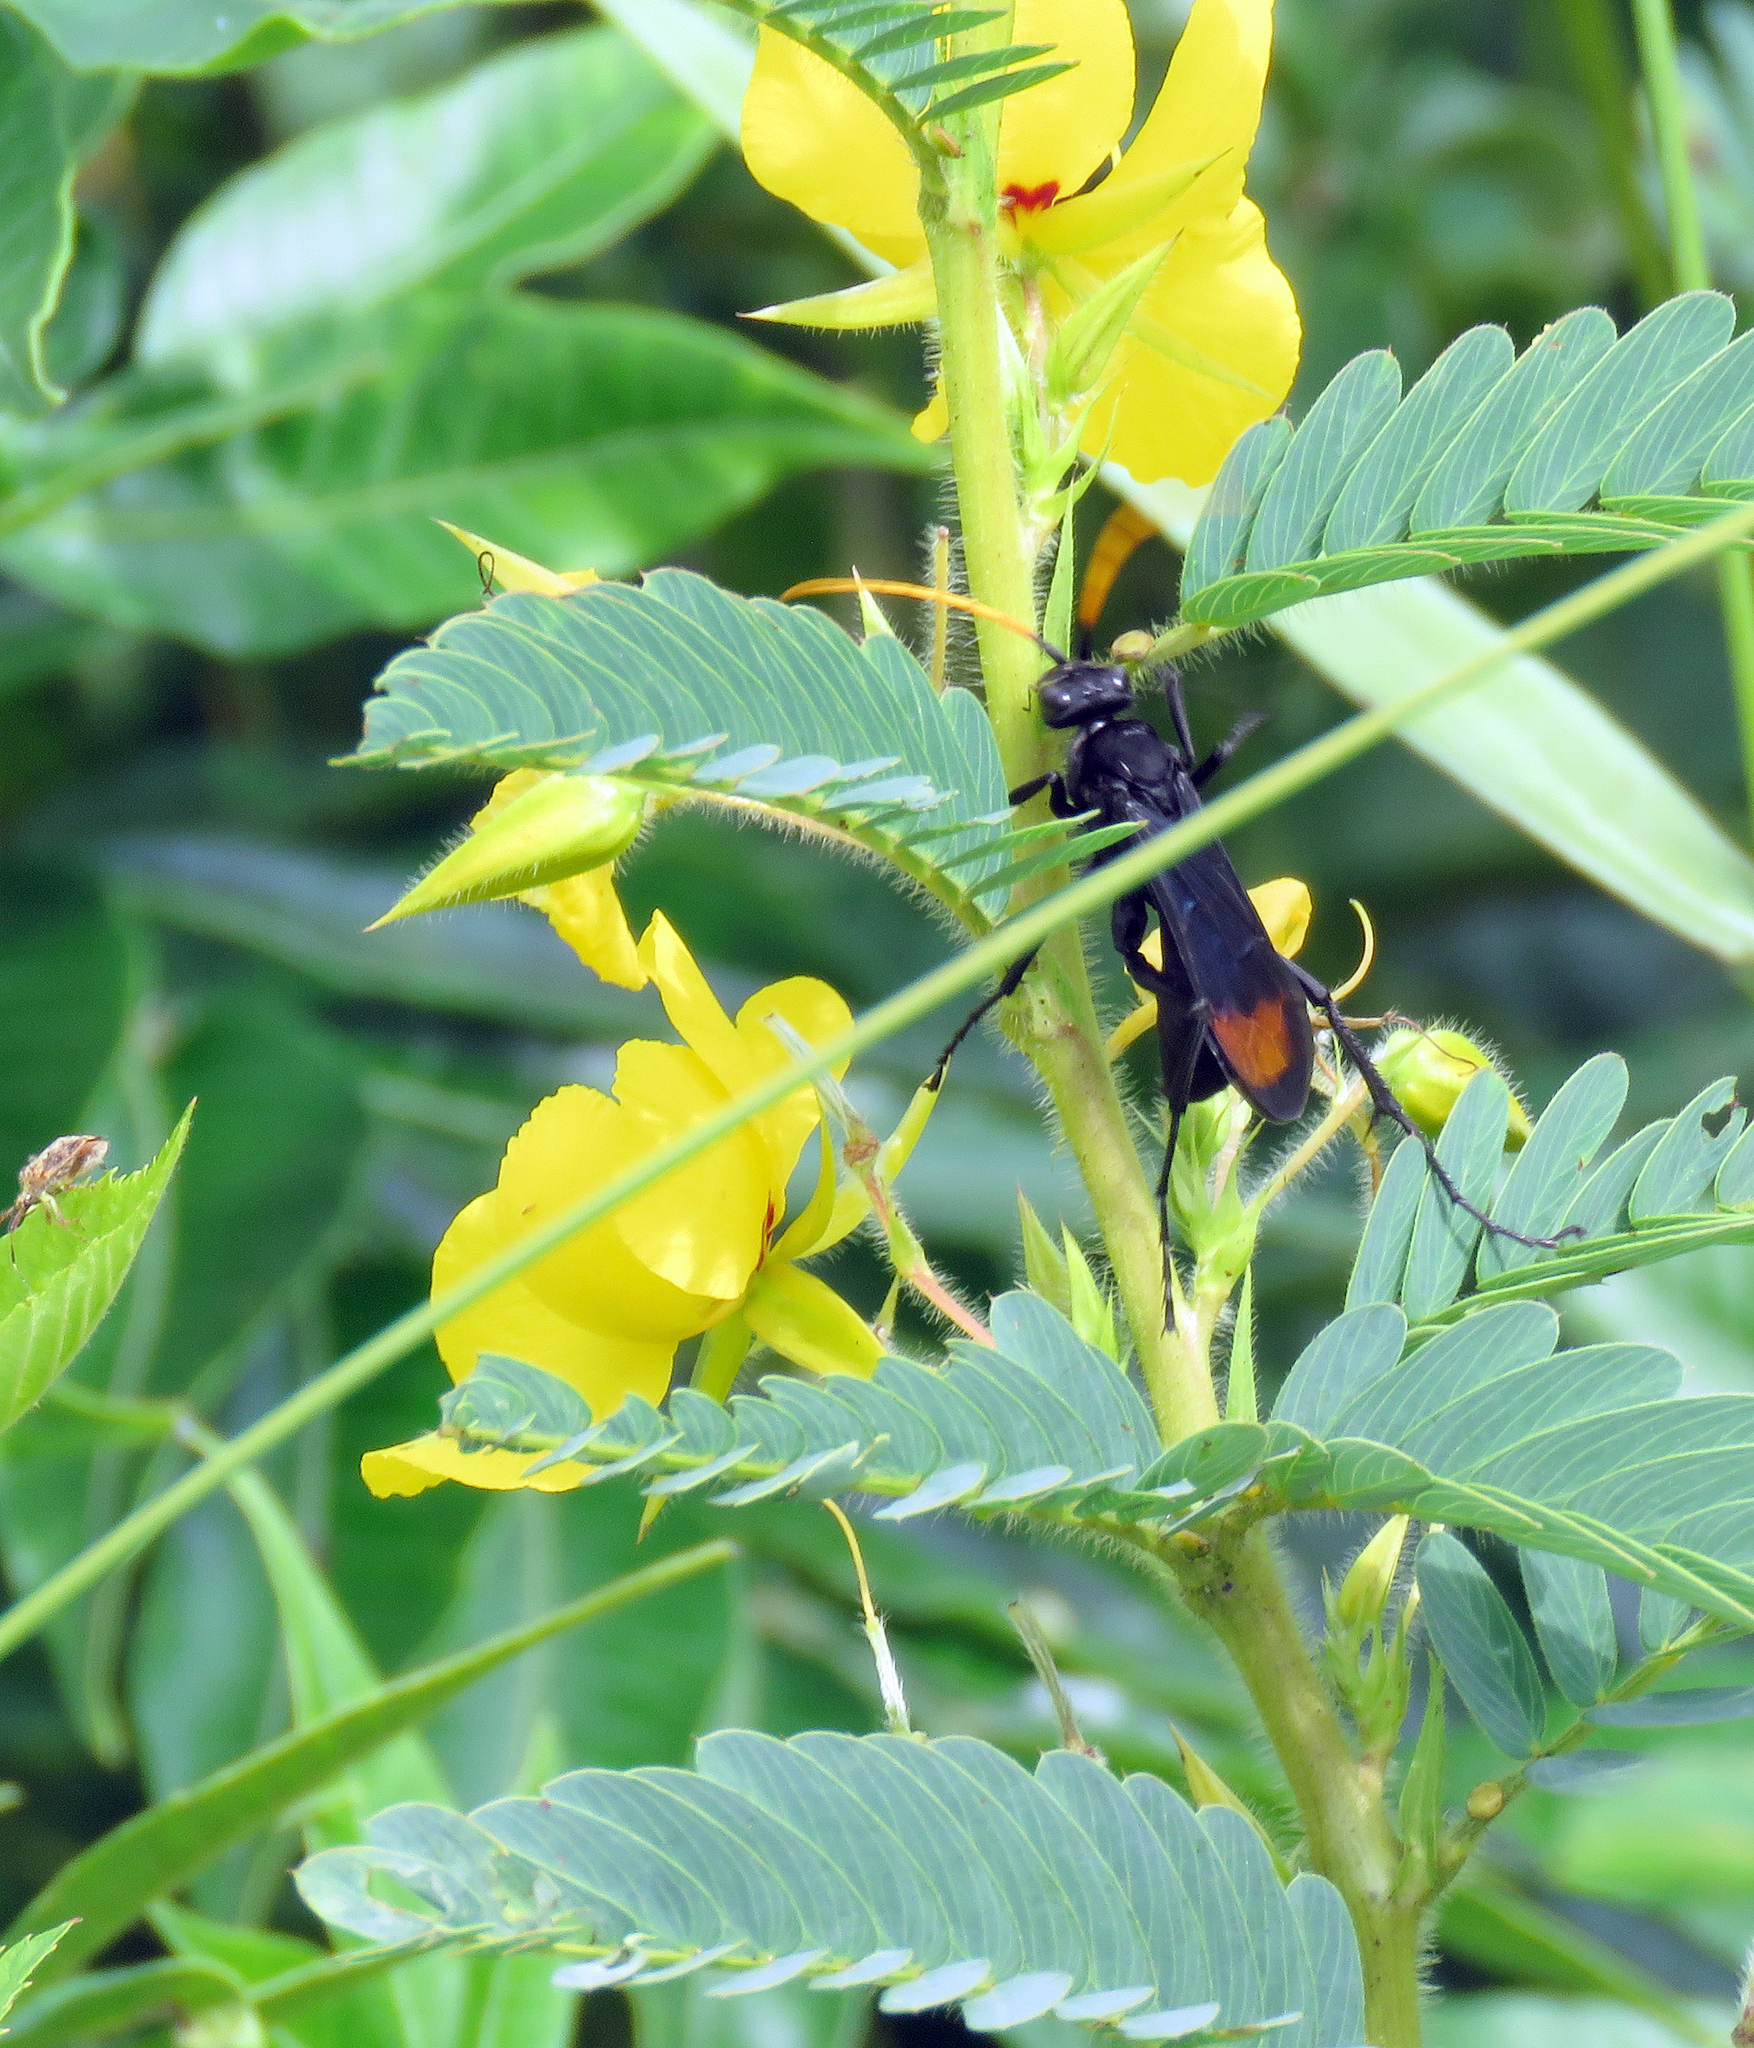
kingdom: Animalia
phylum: Arthropoda
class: Insecta
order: Hymenoptera
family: Pompilidae
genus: Entypus
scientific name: Entypus unifasciatus
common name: Eastern tawny-horned spider wasp
